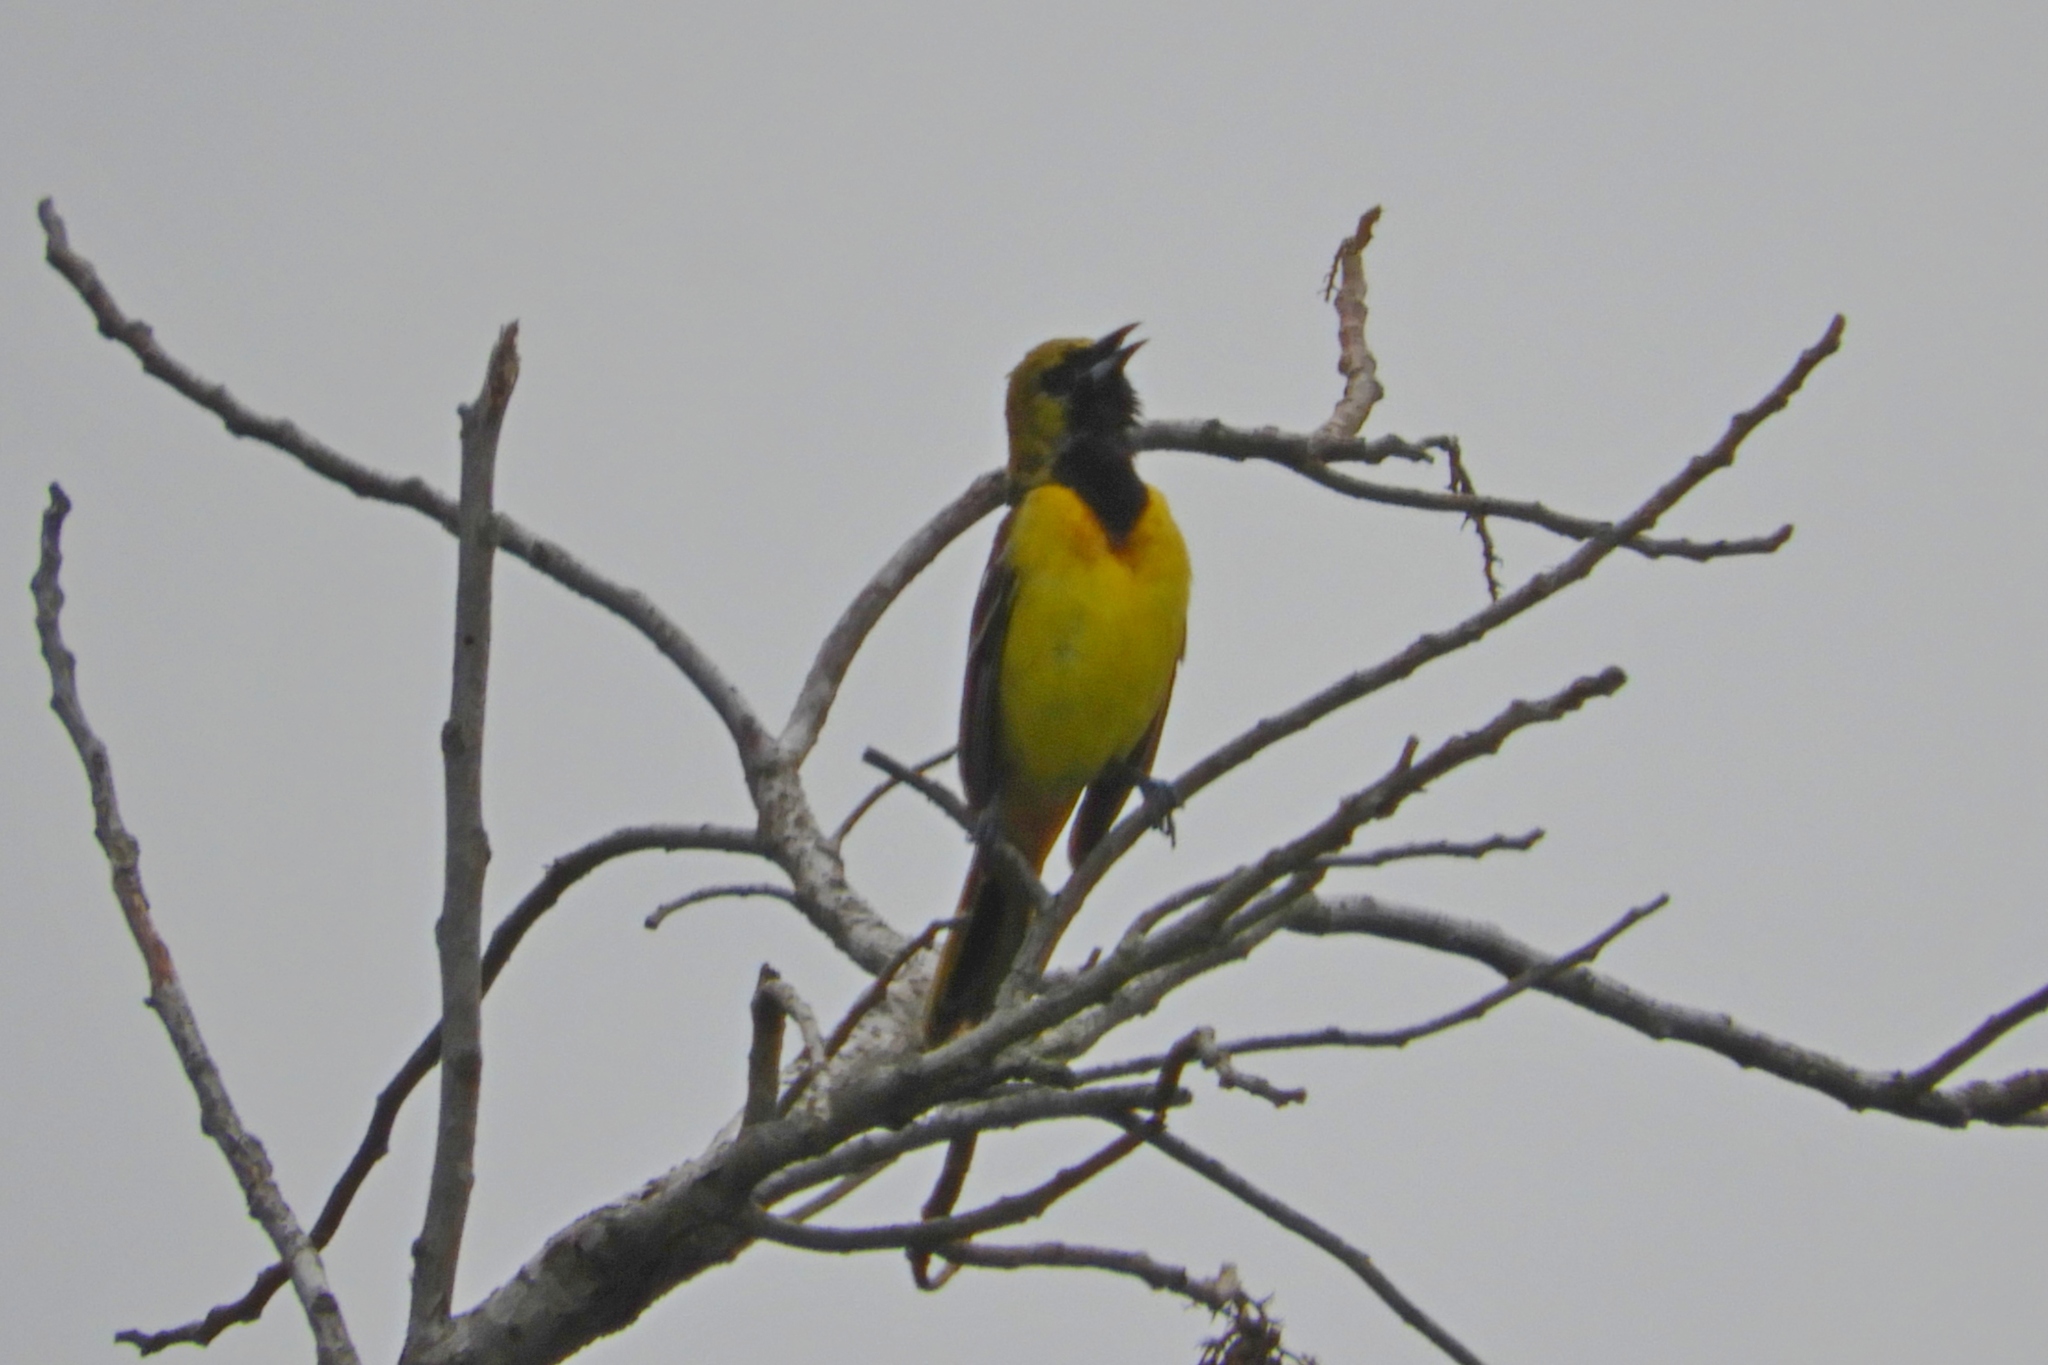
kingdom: Animalia
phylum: Chordata
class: Aves
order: Passeriformes
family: Icteridae
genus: Icterus
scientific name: Icterus spurius
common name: Orchard oriole
